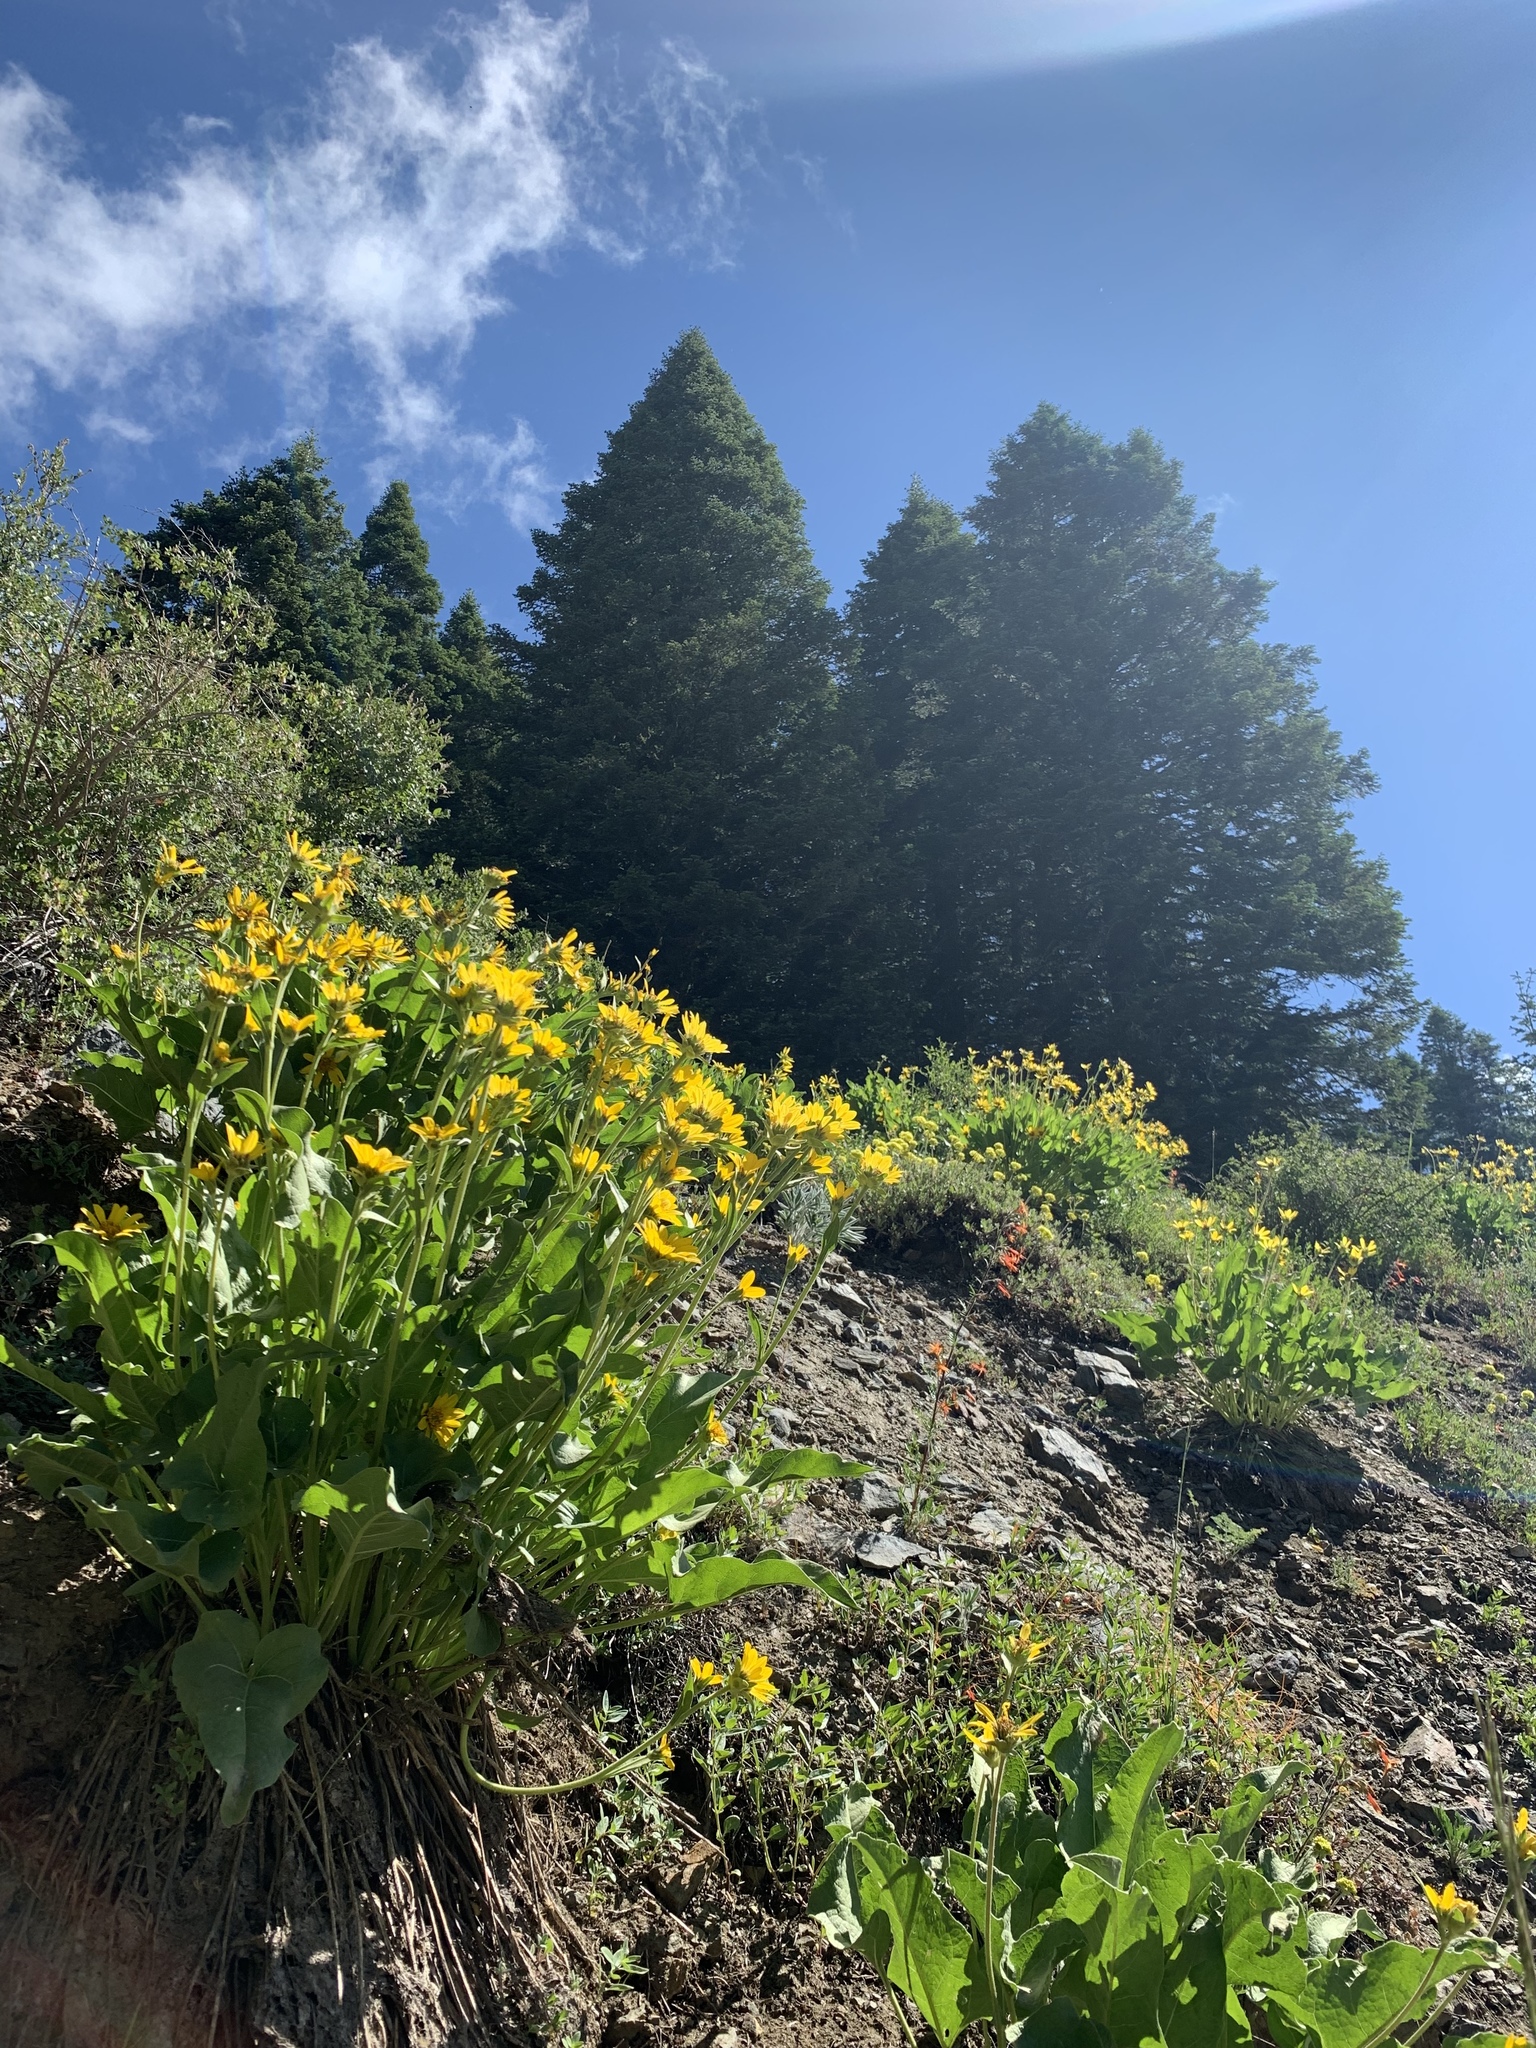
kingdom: Plantae
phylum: Tracheophyta
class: Magnoliopsida
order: Asterales
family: Asteraceae
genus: Balsamorhiza
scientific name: Balsamorhiza deltoidea
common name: Deltoid balsamroot
